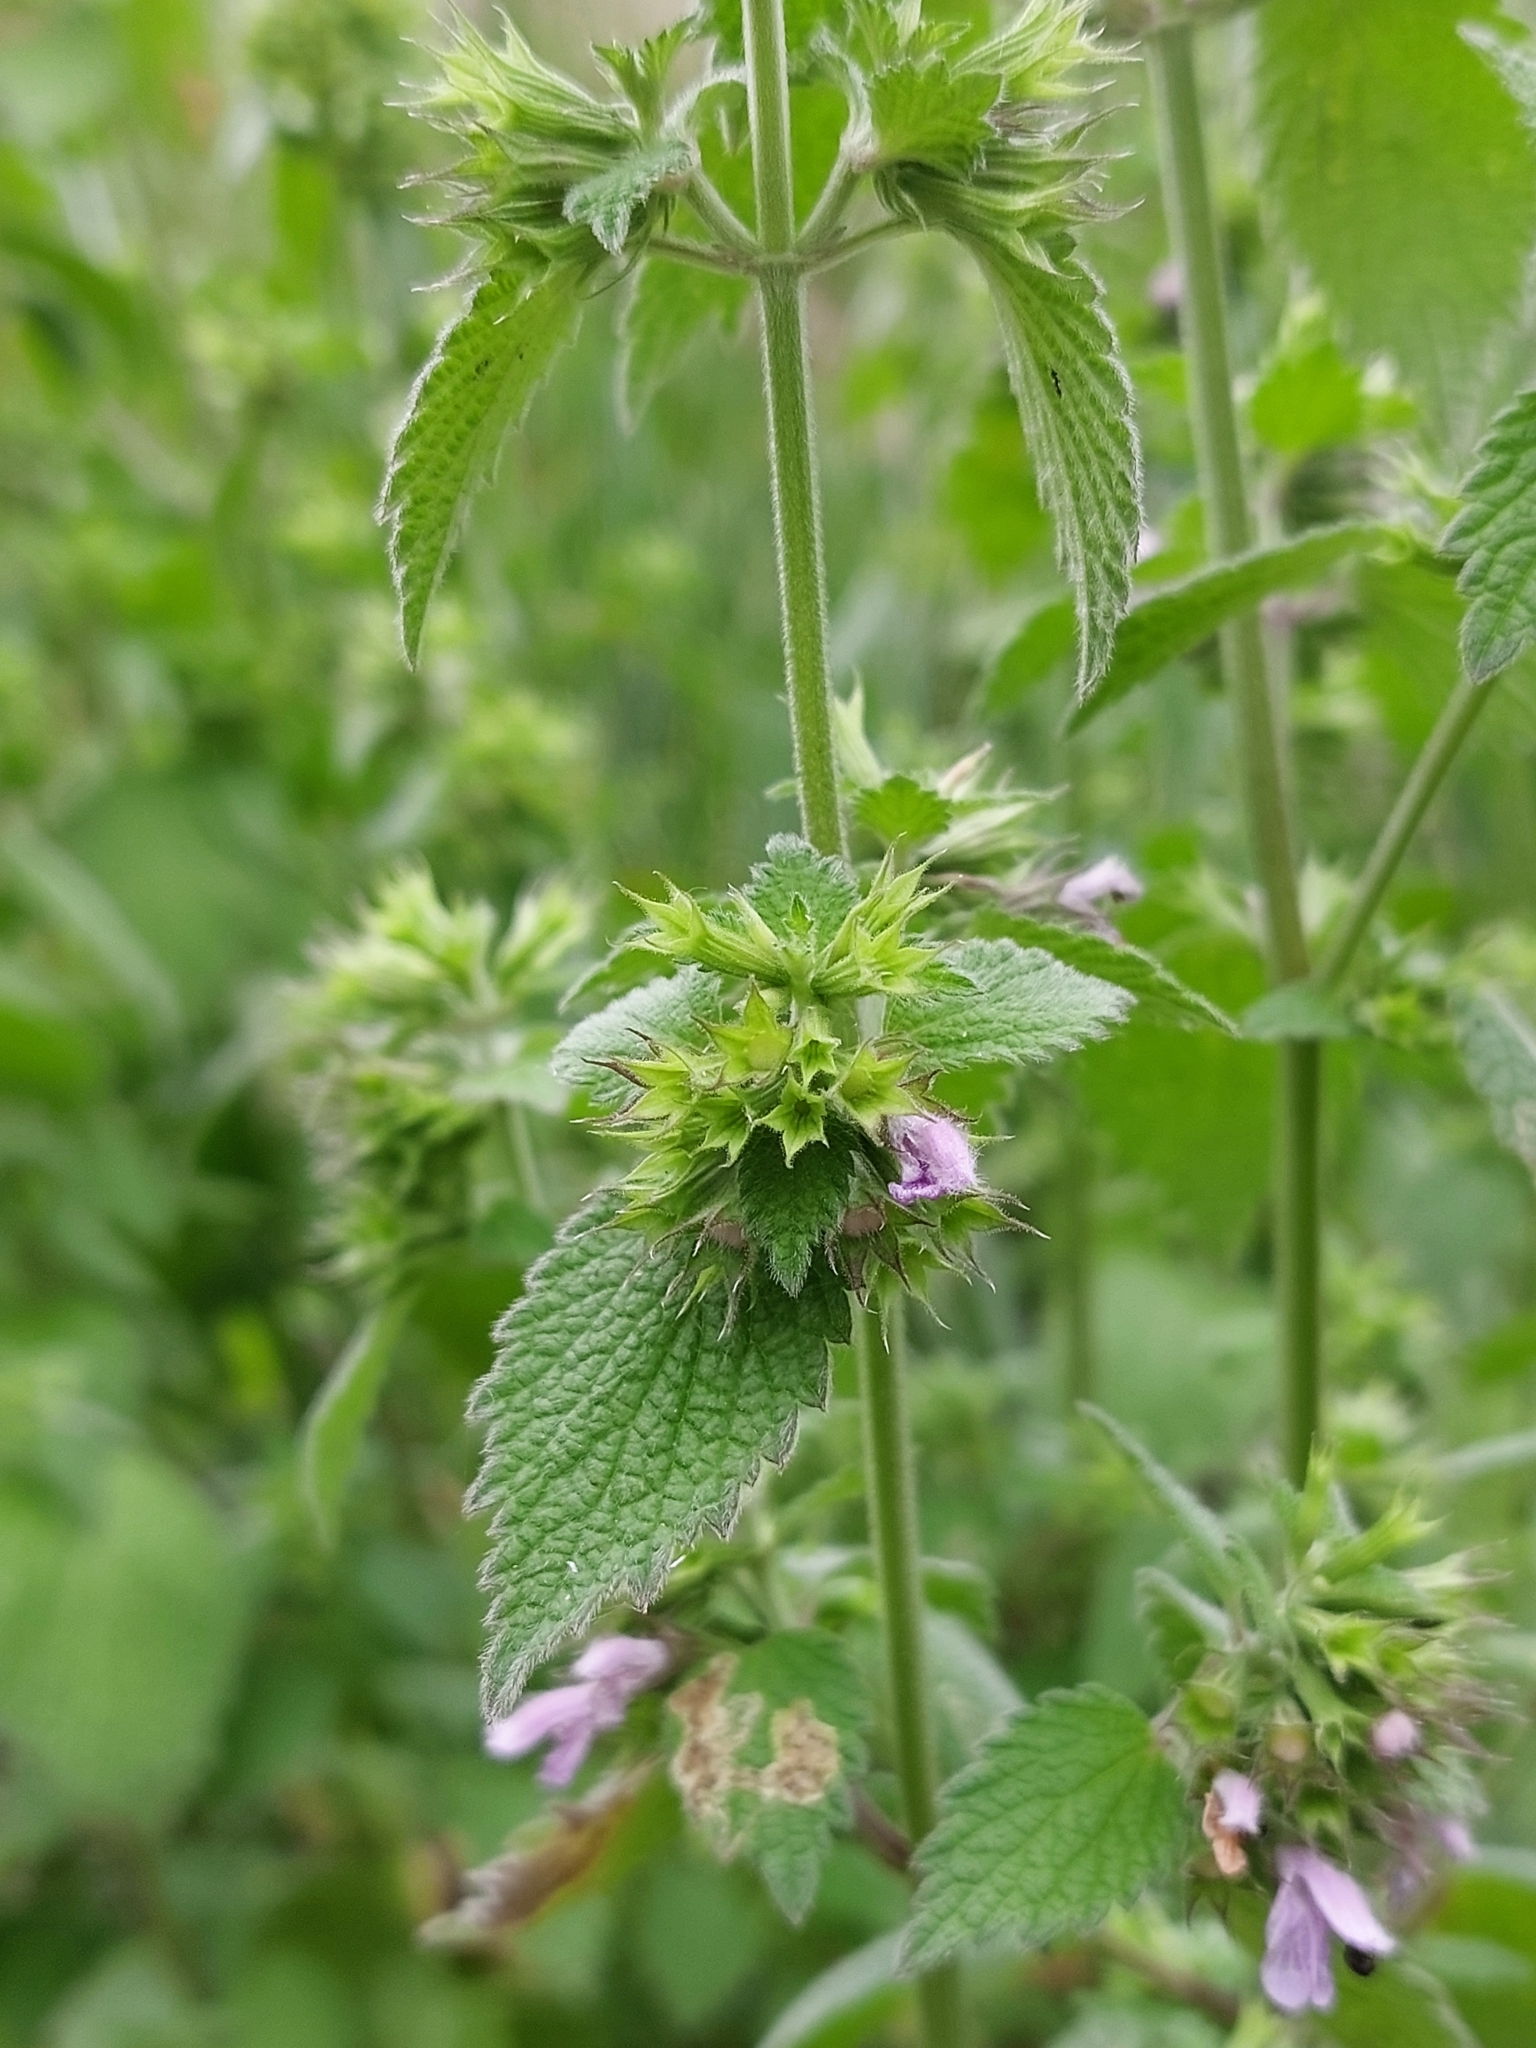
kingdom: Plantae
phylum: Tracheophyta
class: Magnoliopsida
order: Lamiales
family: Lamiaceae
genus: Ballota
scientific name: Ballota nigra
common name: Black horehound
